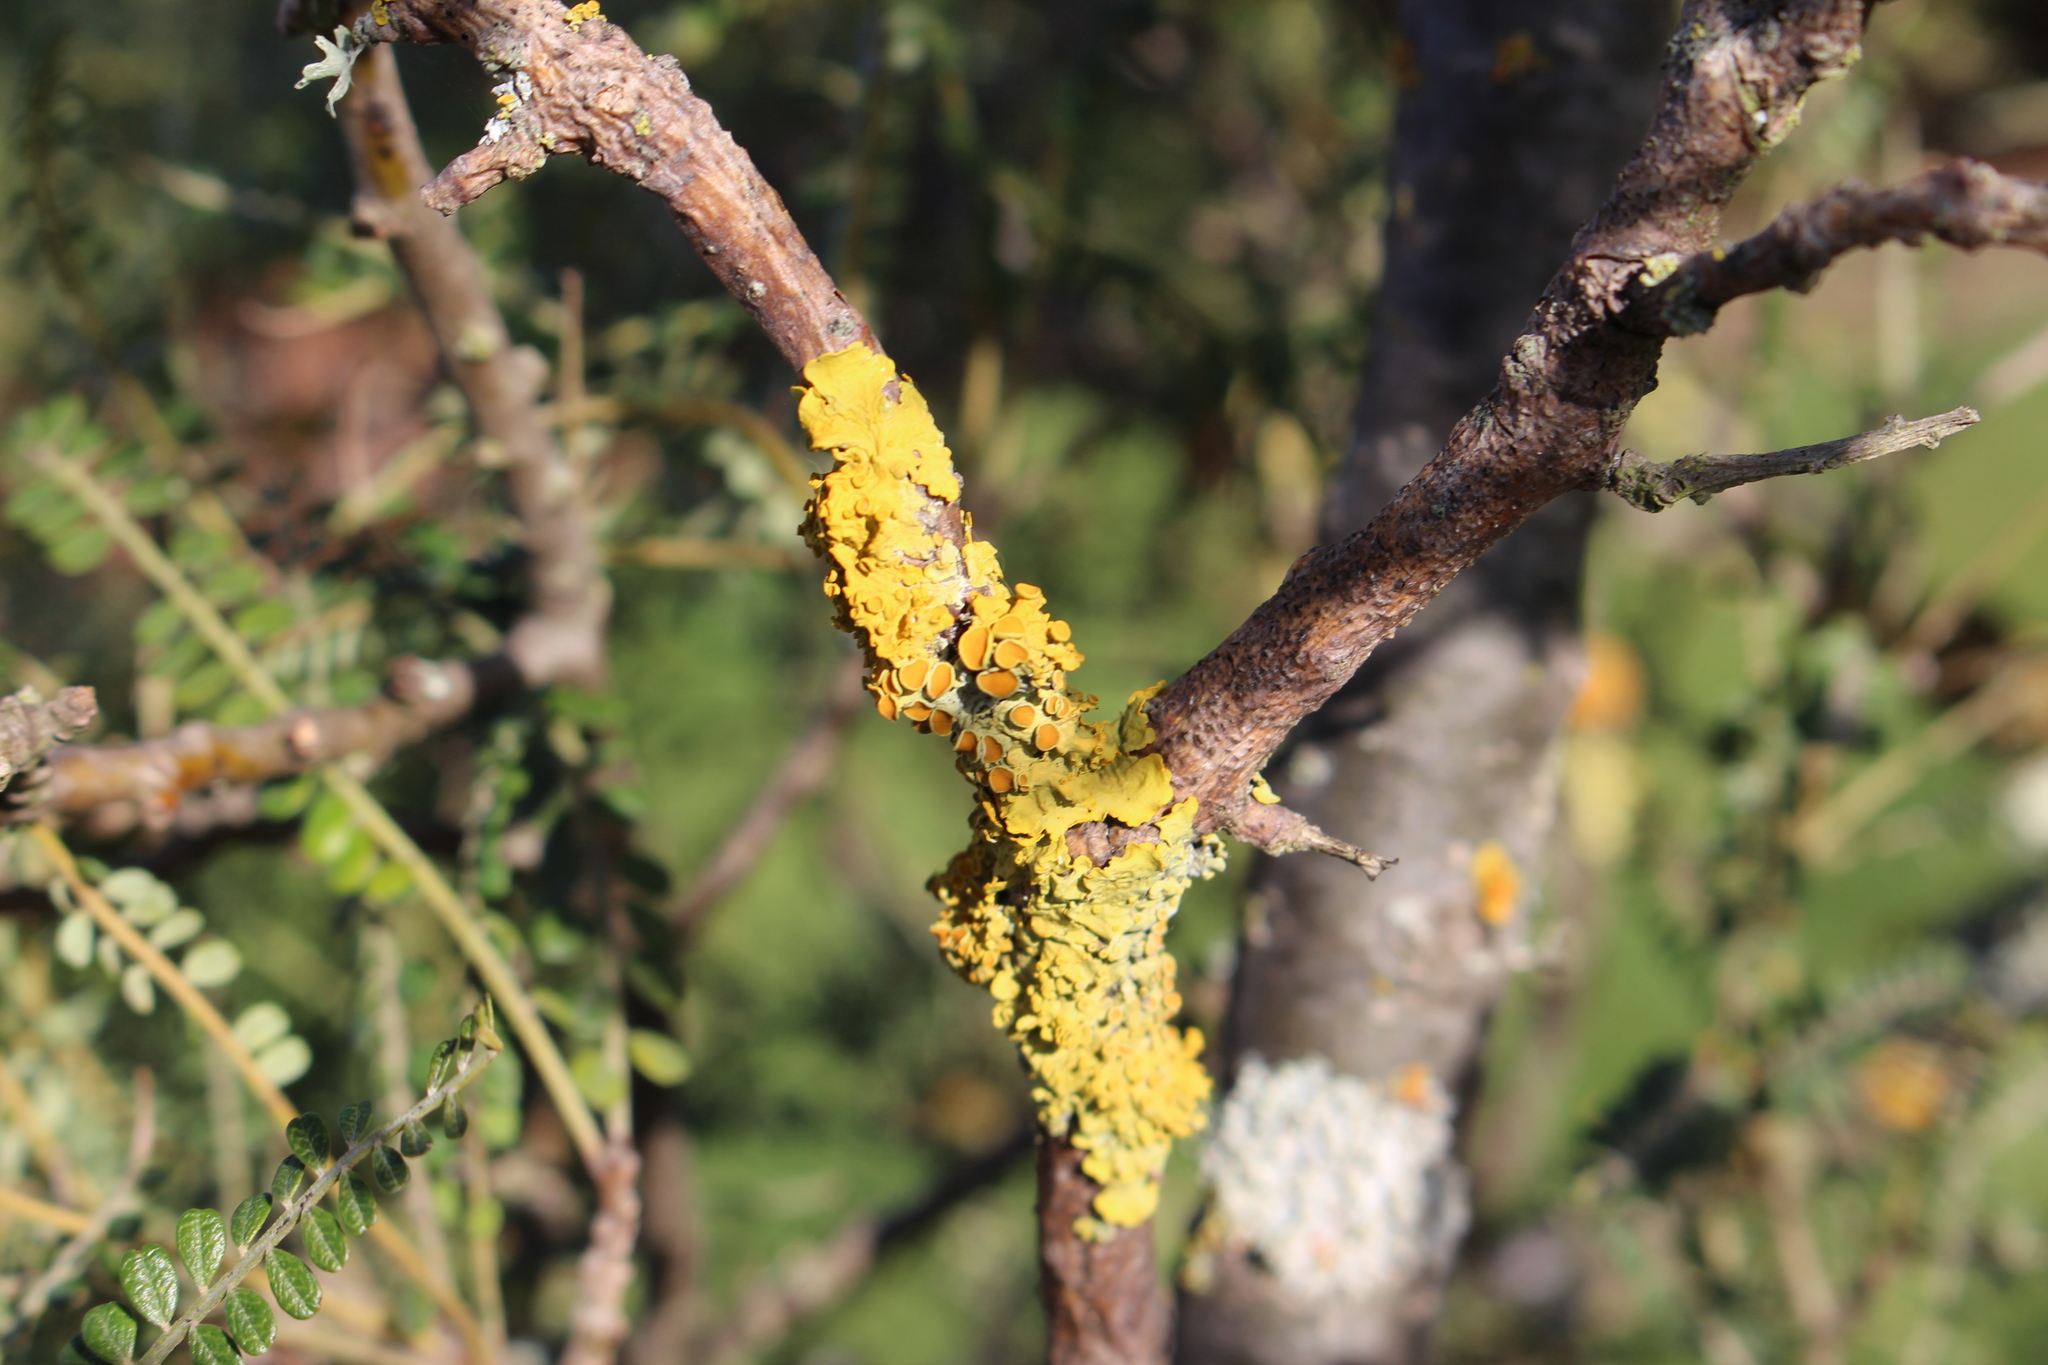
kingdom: Fungi
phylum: Ascomycota
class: Lecanoromycetes
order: Teloschistales
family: Teloschistaceae
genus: Xanthoria
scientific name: Xanthoria parietina
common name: Common orange lichen
